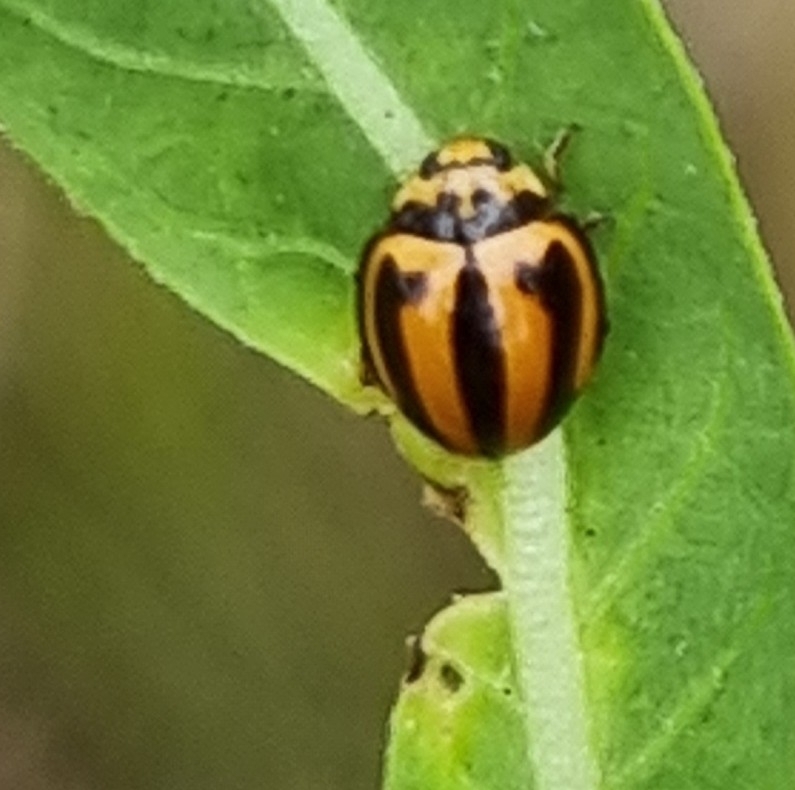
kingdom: Animalia
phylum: Arthropoda
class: Insecta
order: Coleoptera
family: Coccinellidae
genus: Micraspis
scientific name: Micraspis frenata
